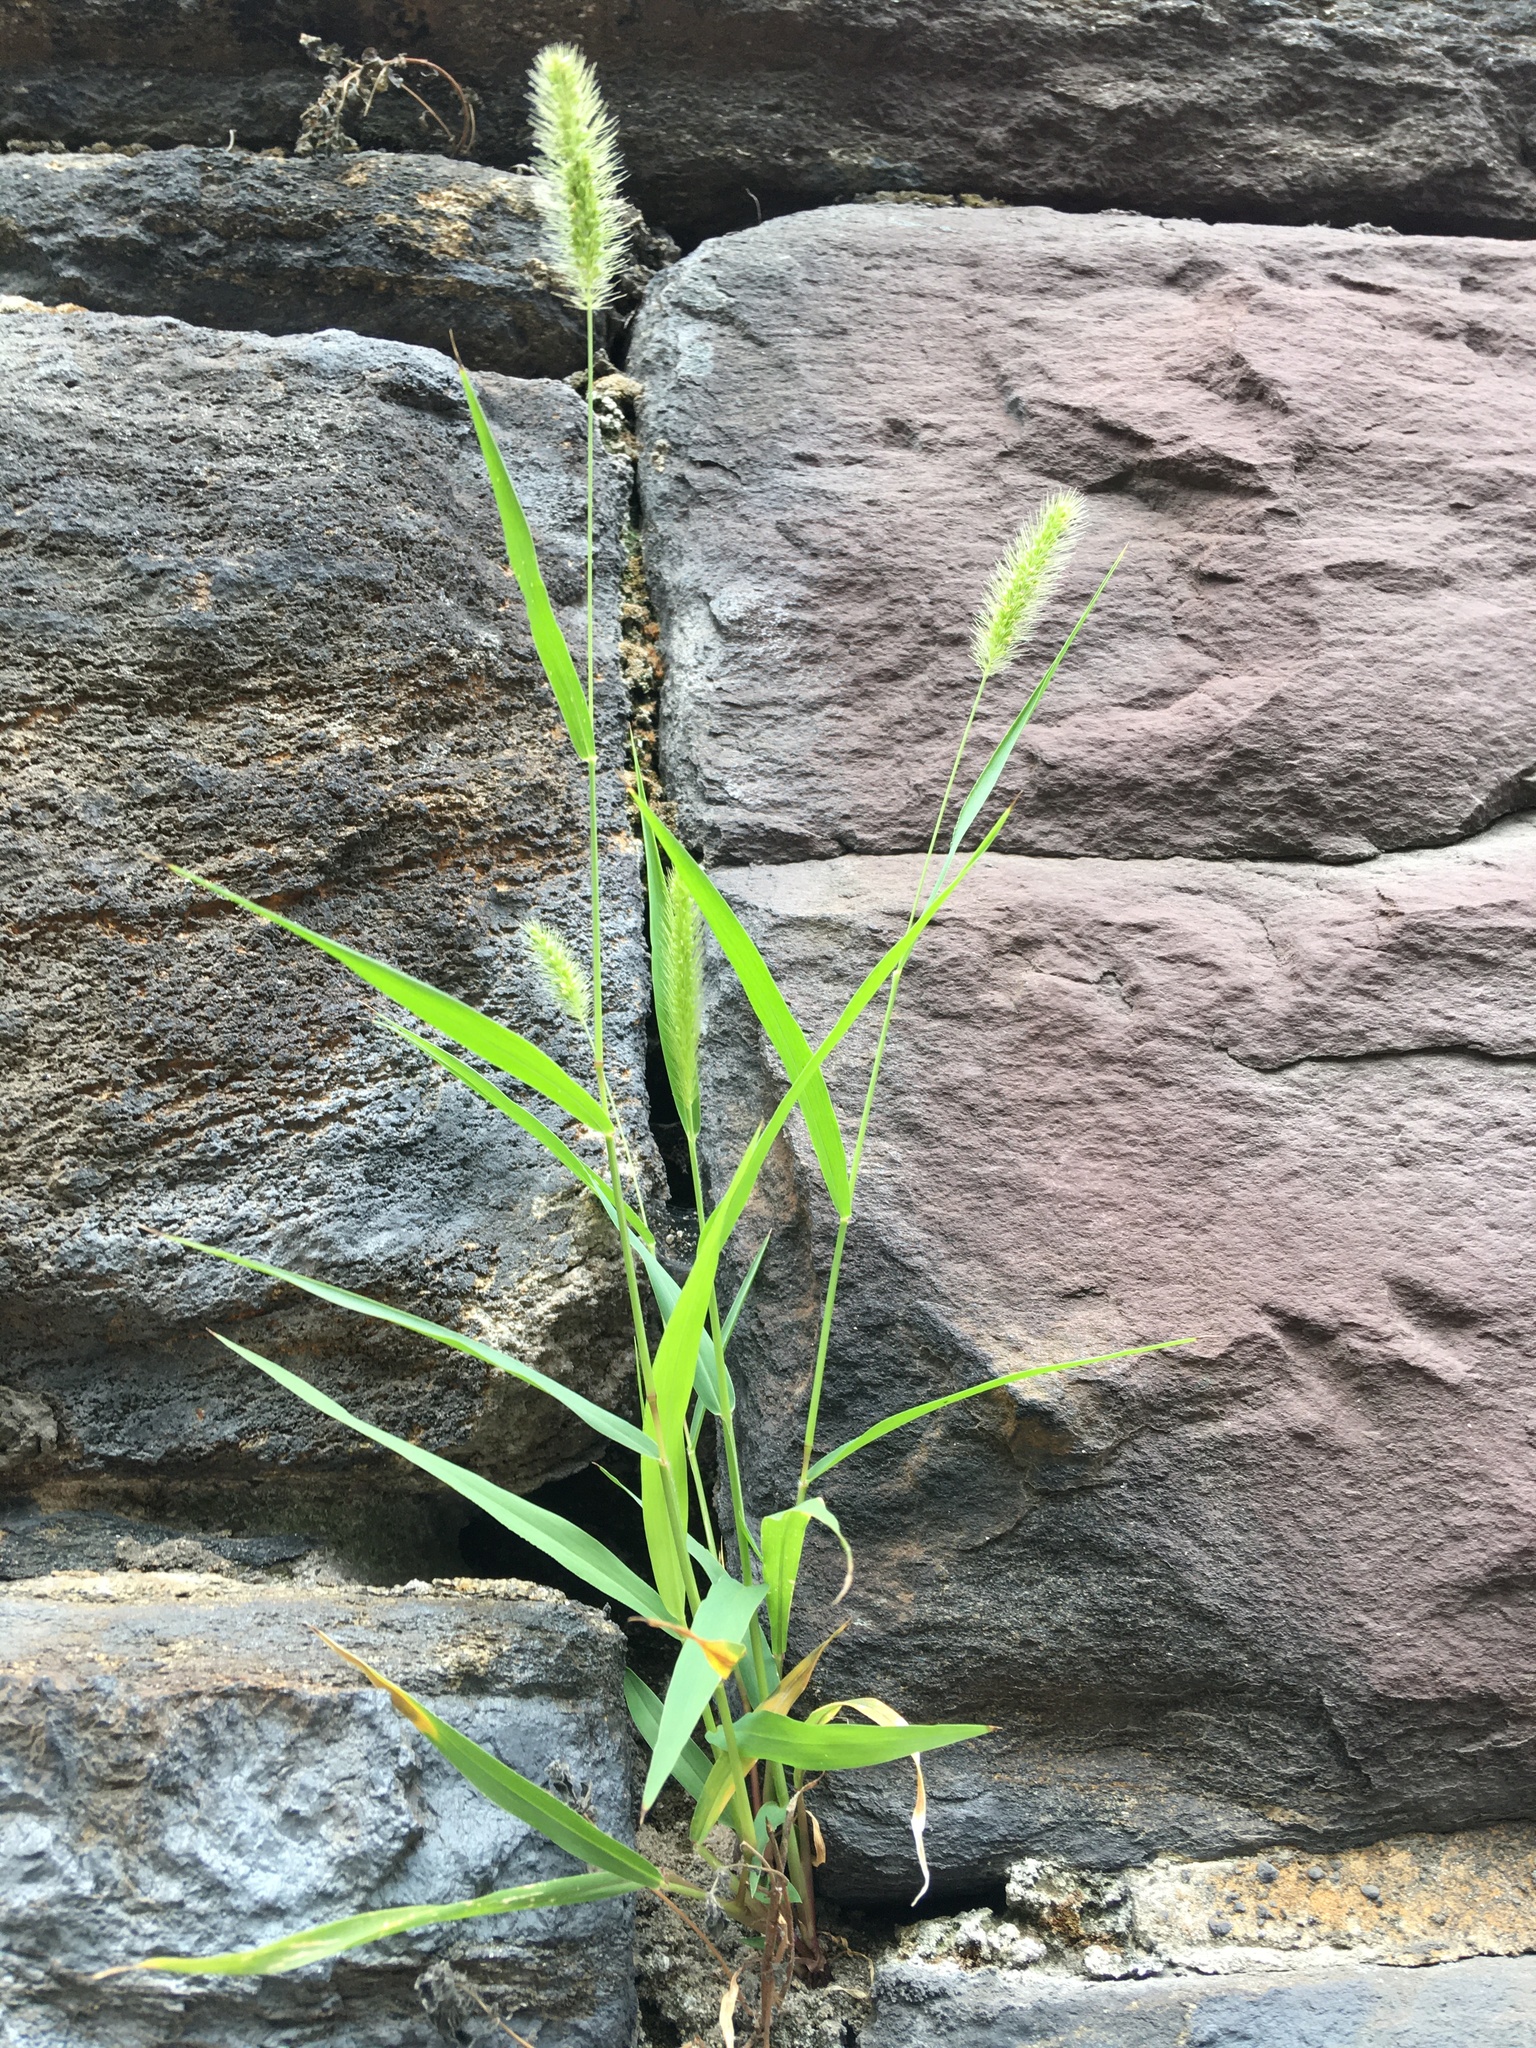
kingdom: Plantae
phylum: Tracheophyta
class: Liliopsida
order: Poales
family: Poaceae
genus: Setaria
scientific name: Setaria viridis
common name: Green bristlegrass
